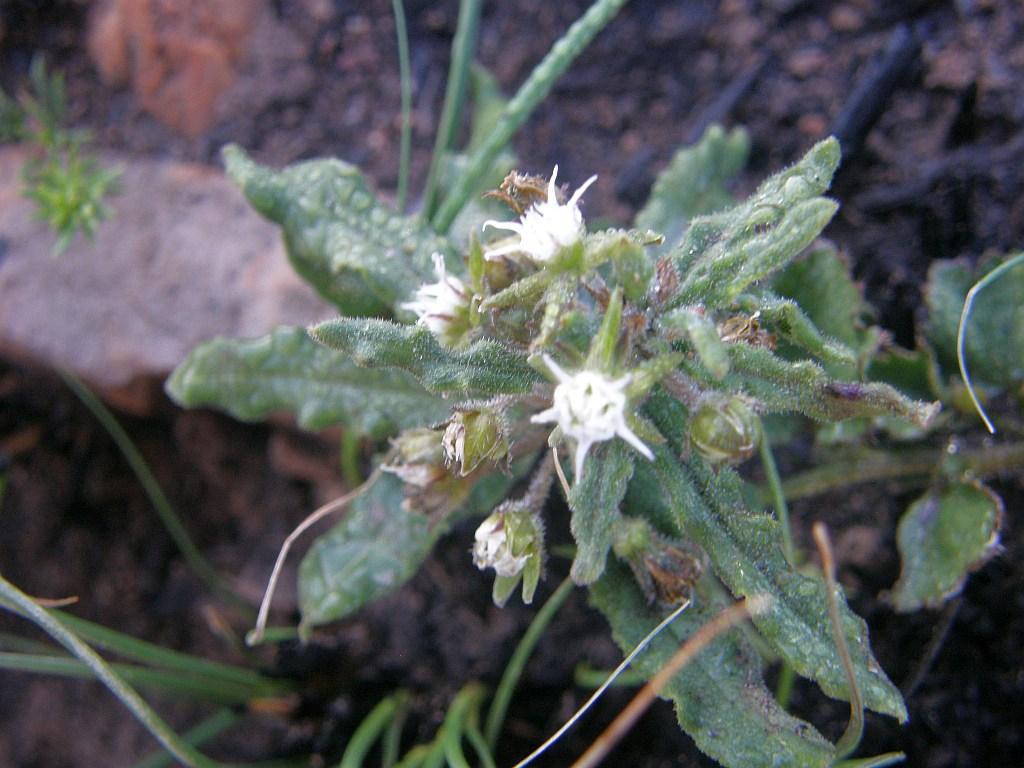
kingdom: Plantae
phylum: Tracheophyta
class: Magnoliopsida
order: Gentianales
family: Apocynaceae
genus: Aspidoglossum
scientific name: Aspidoglossum heterophyllum
